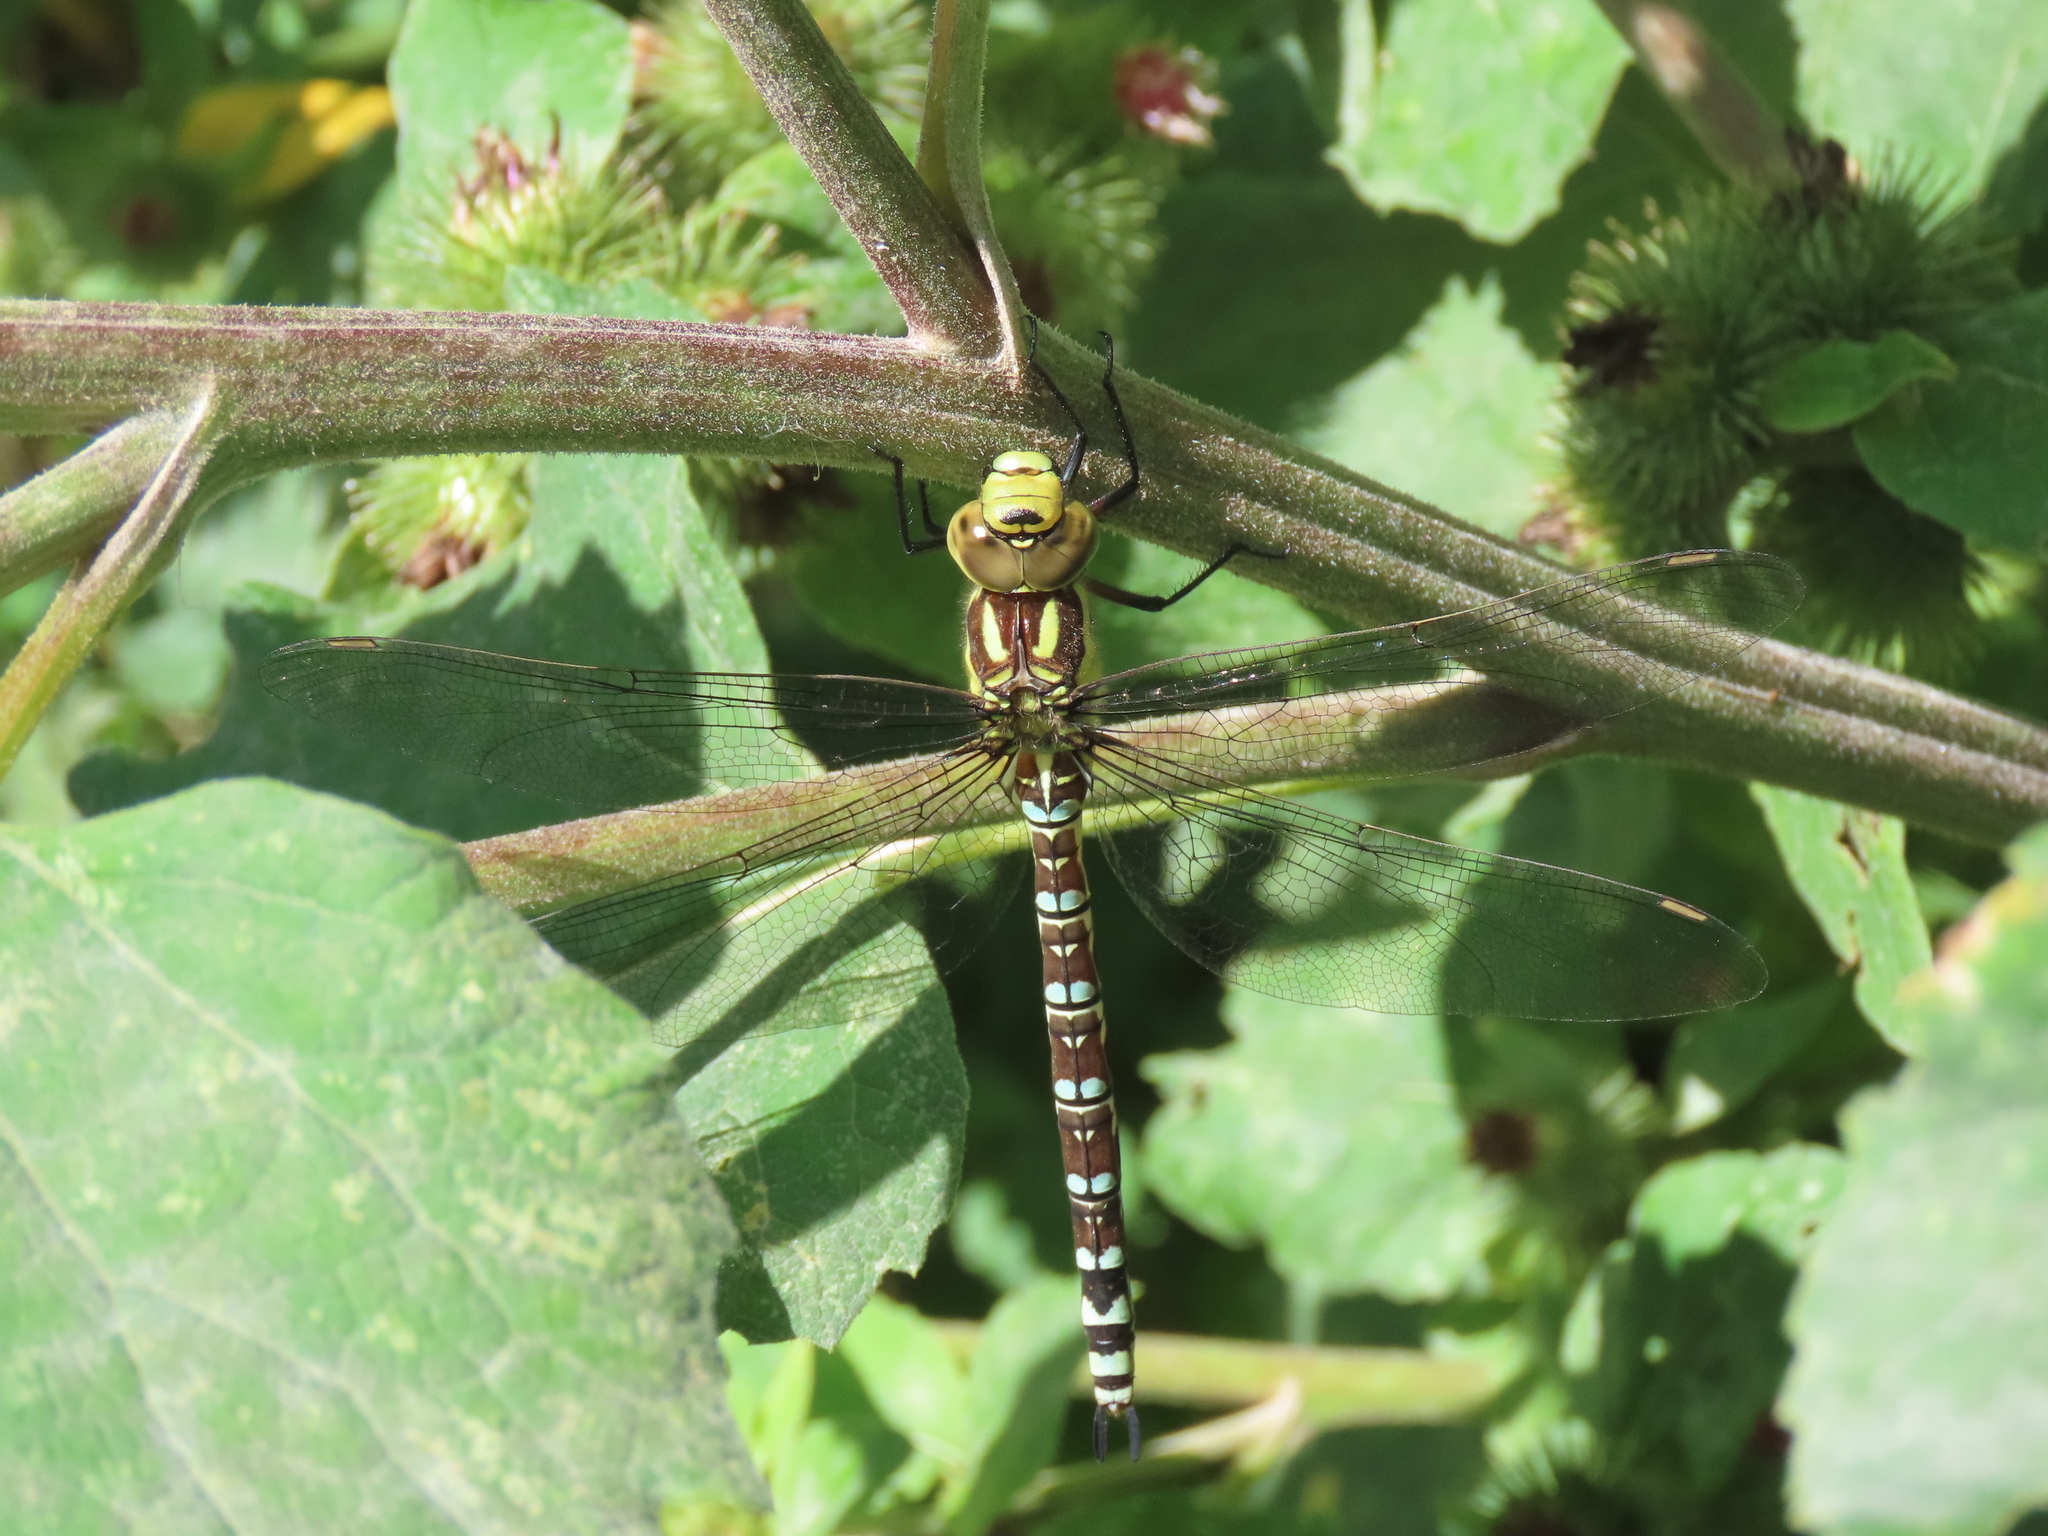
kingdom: Animalia
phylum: Arthropoda
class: Insecta
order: Odonata
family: Aeshnidae
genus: Aeshna
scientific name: Aeshna cyanea
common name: Southern hawker
